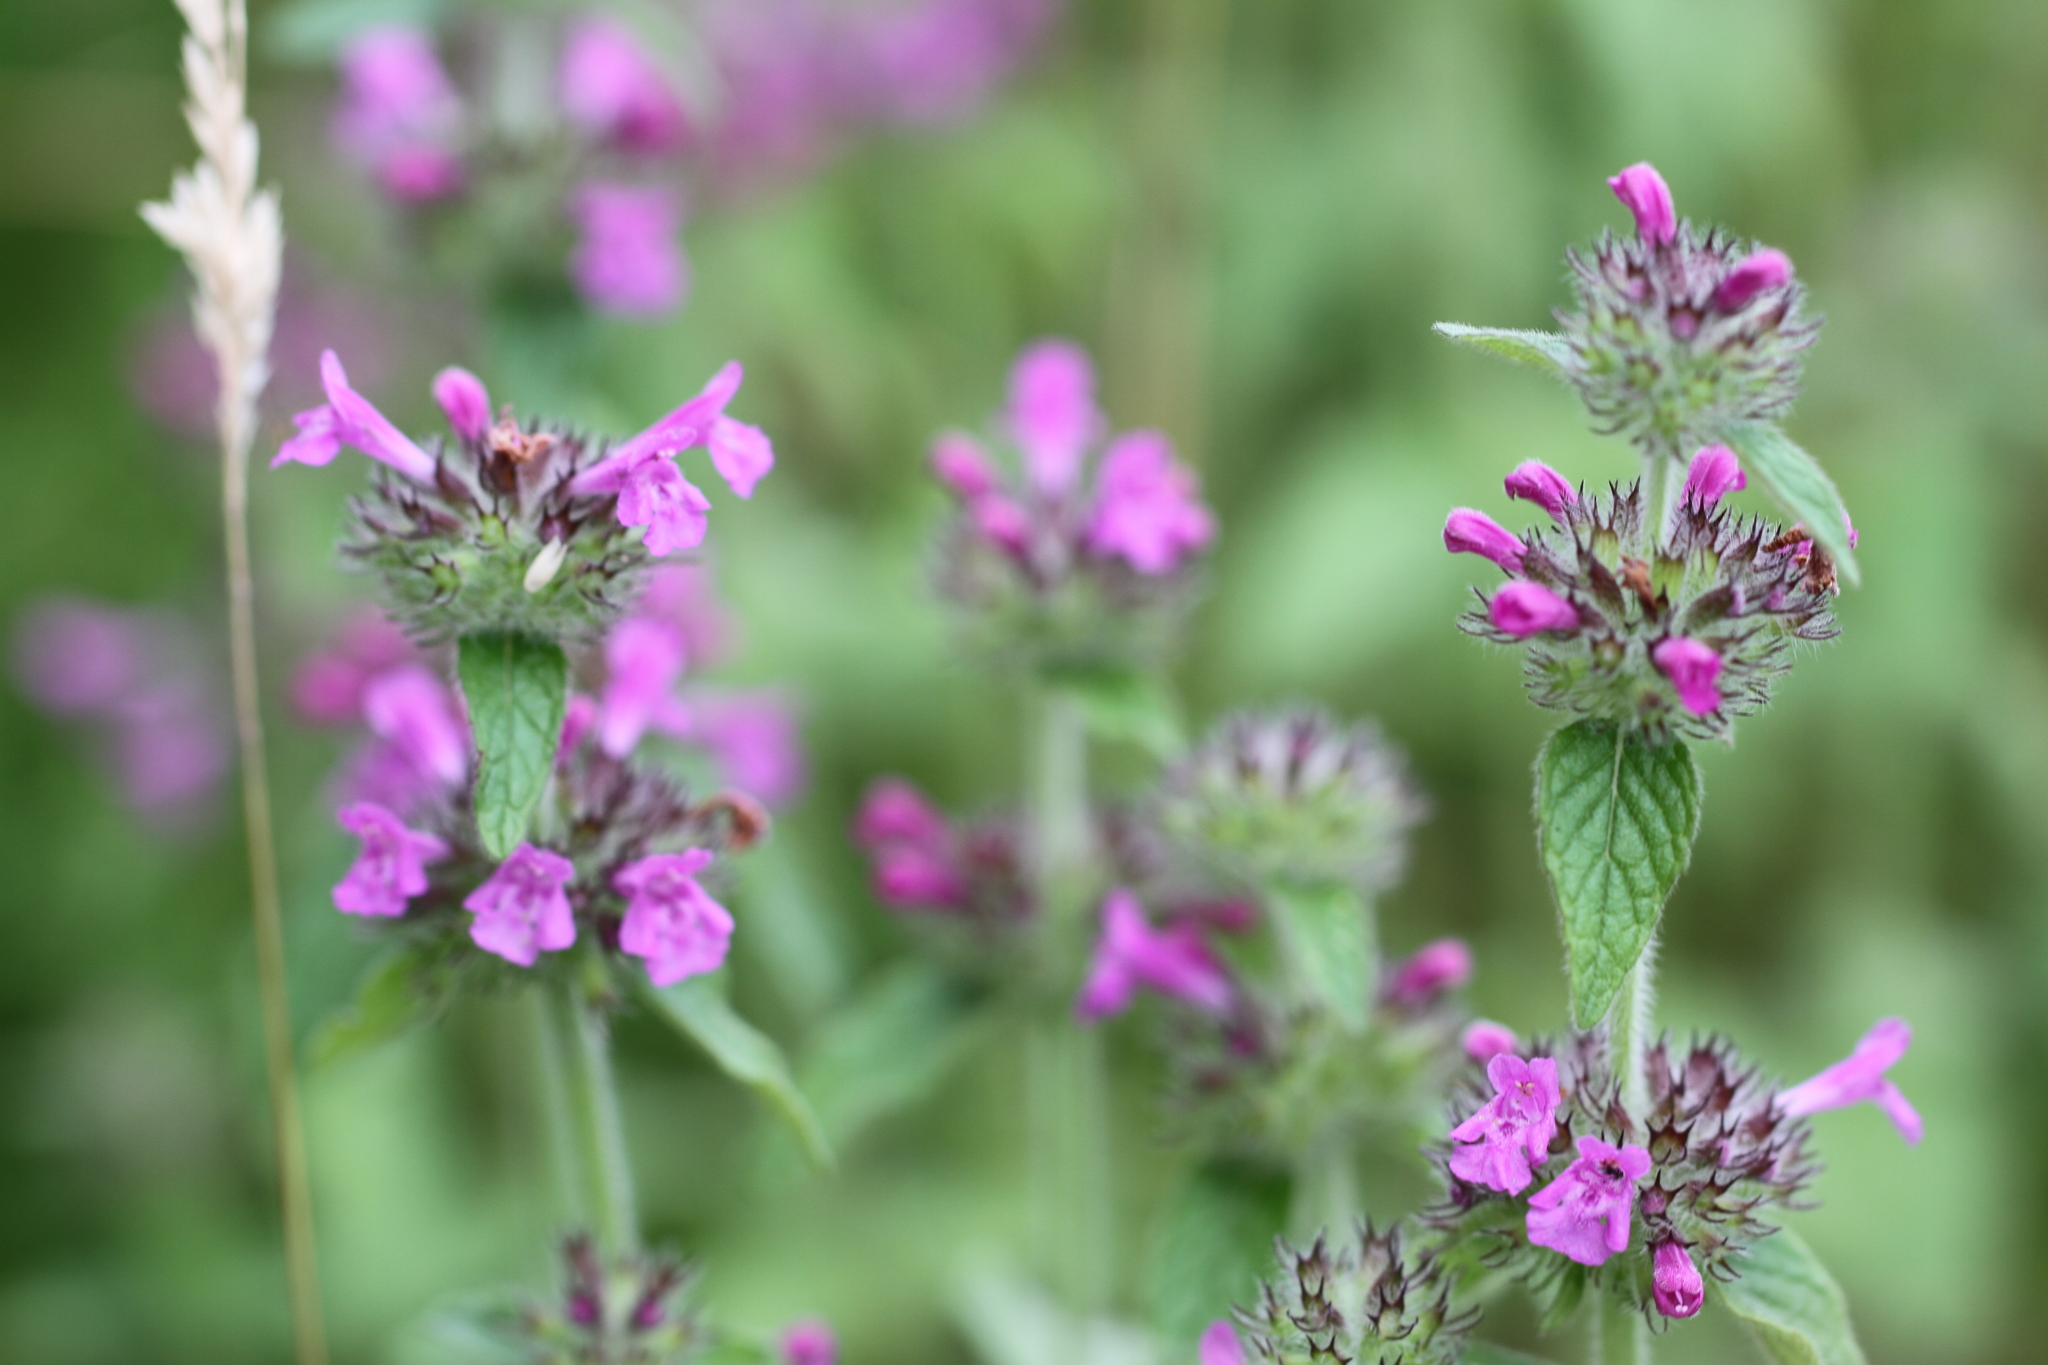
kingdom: Plantae
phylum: Tracheophyta
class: Magnoliopsida
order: Lamiales
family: Lamiaceae
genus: Clinopodium
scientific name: Clinopodium vulgare
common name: Wild basil
